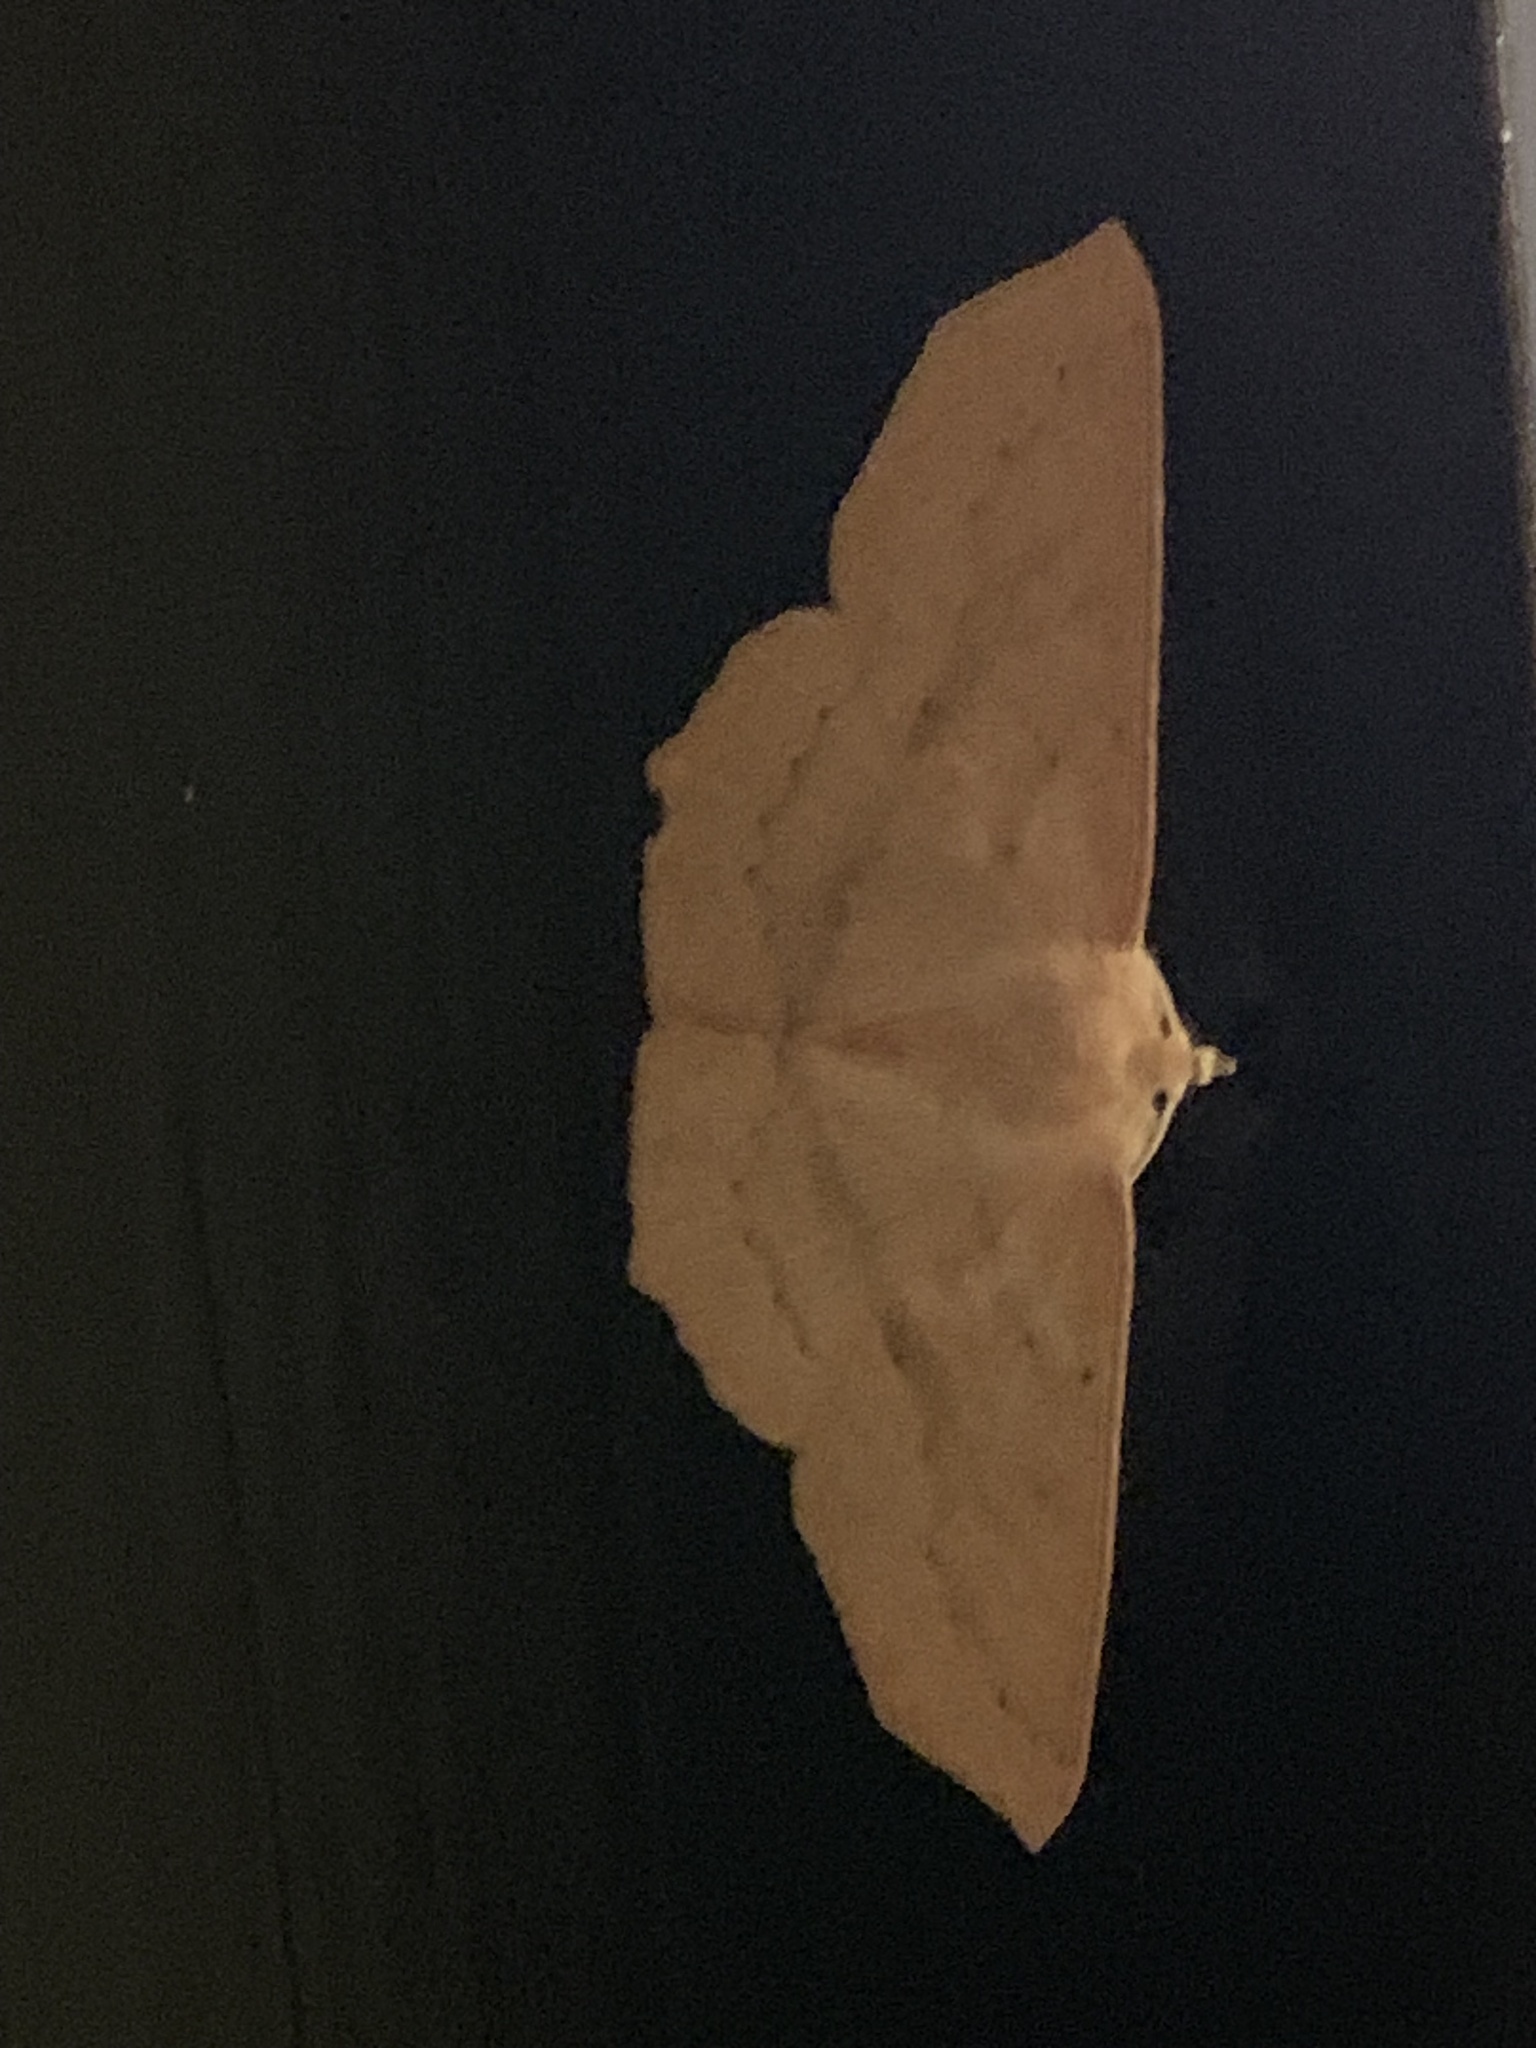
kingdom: Animalia
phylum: Arthropoda
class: Insecta
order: Lepidoptera
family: Geometridae
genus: Sabulodes
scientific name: Sabulodes aegrotata
